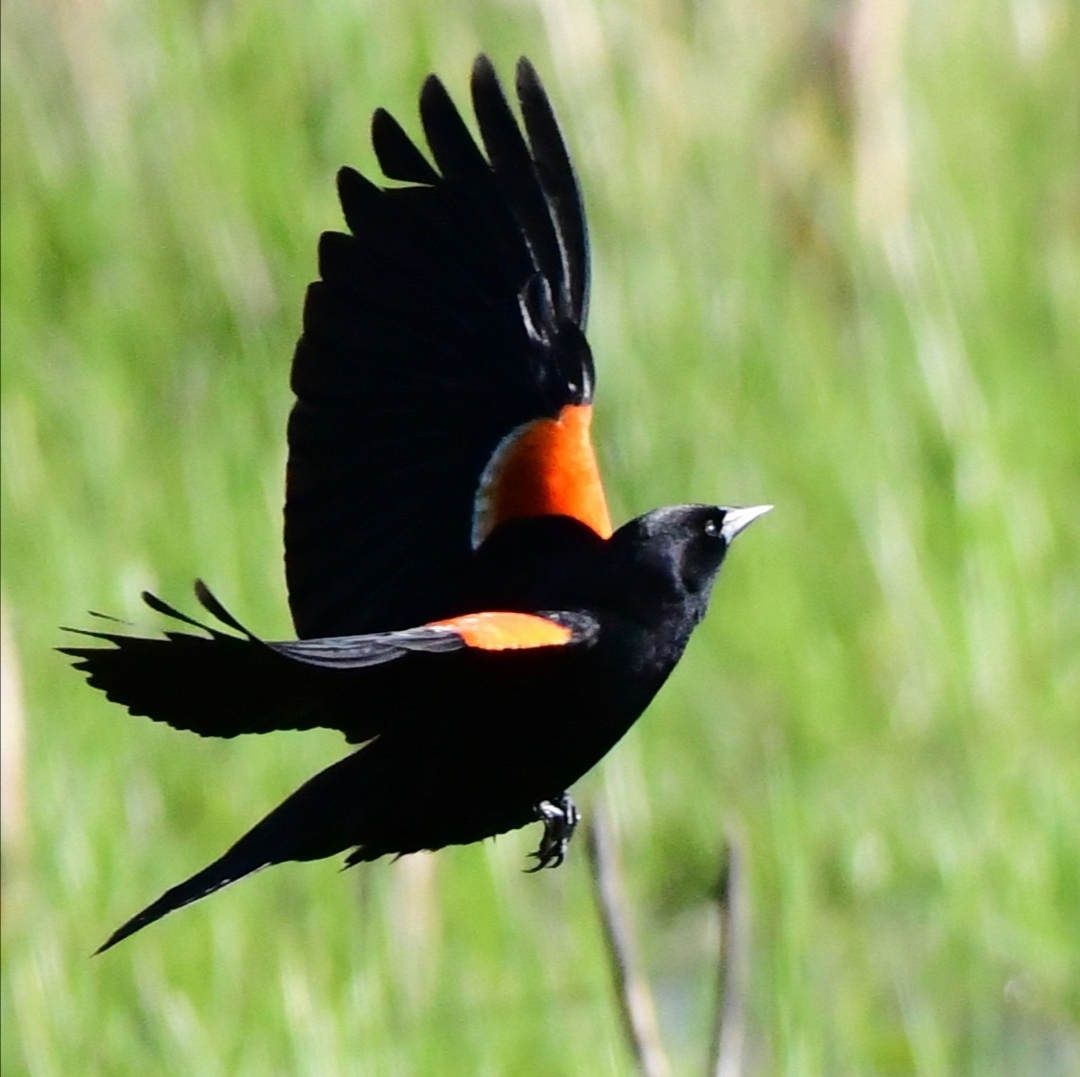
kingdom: Animalia
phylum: Chordata
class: Aves
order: Passeriformes
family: Icteridae
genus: Agelaius
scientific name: Agelaius phoeniceus
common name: Red-winged blackbird
